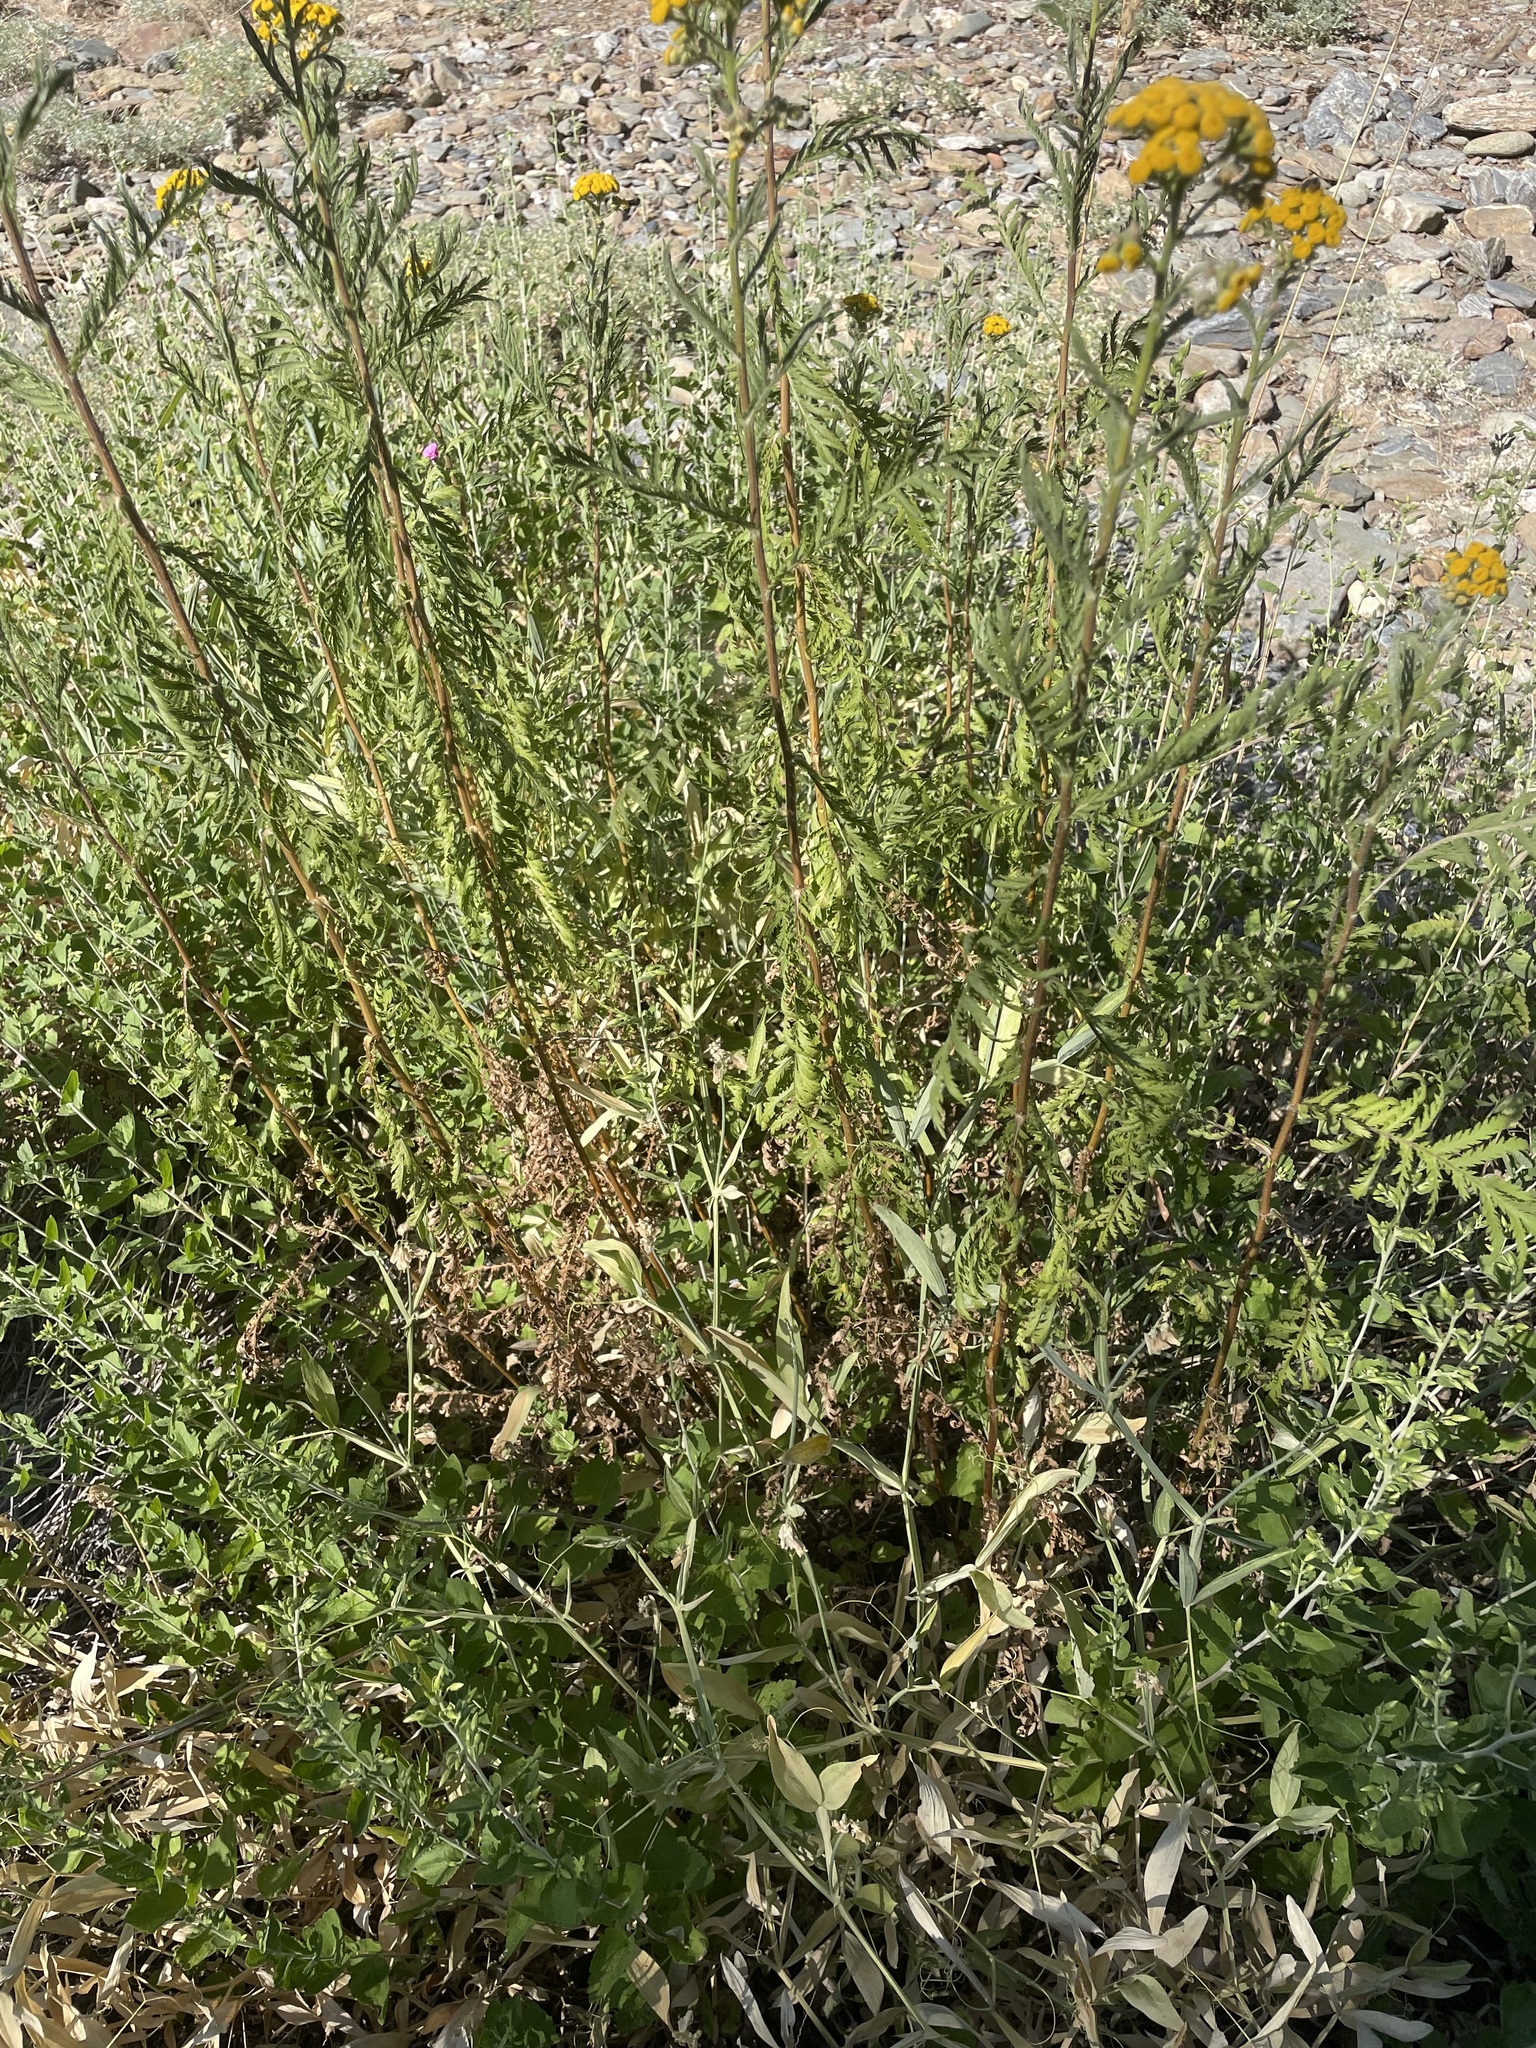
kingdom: Plantae
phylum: Tracheophyta
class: Magnoliopsida
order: Asterales
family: Asteraceae
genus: Tanacetum
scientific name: Tanacetum vulgare
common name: Common tansy
